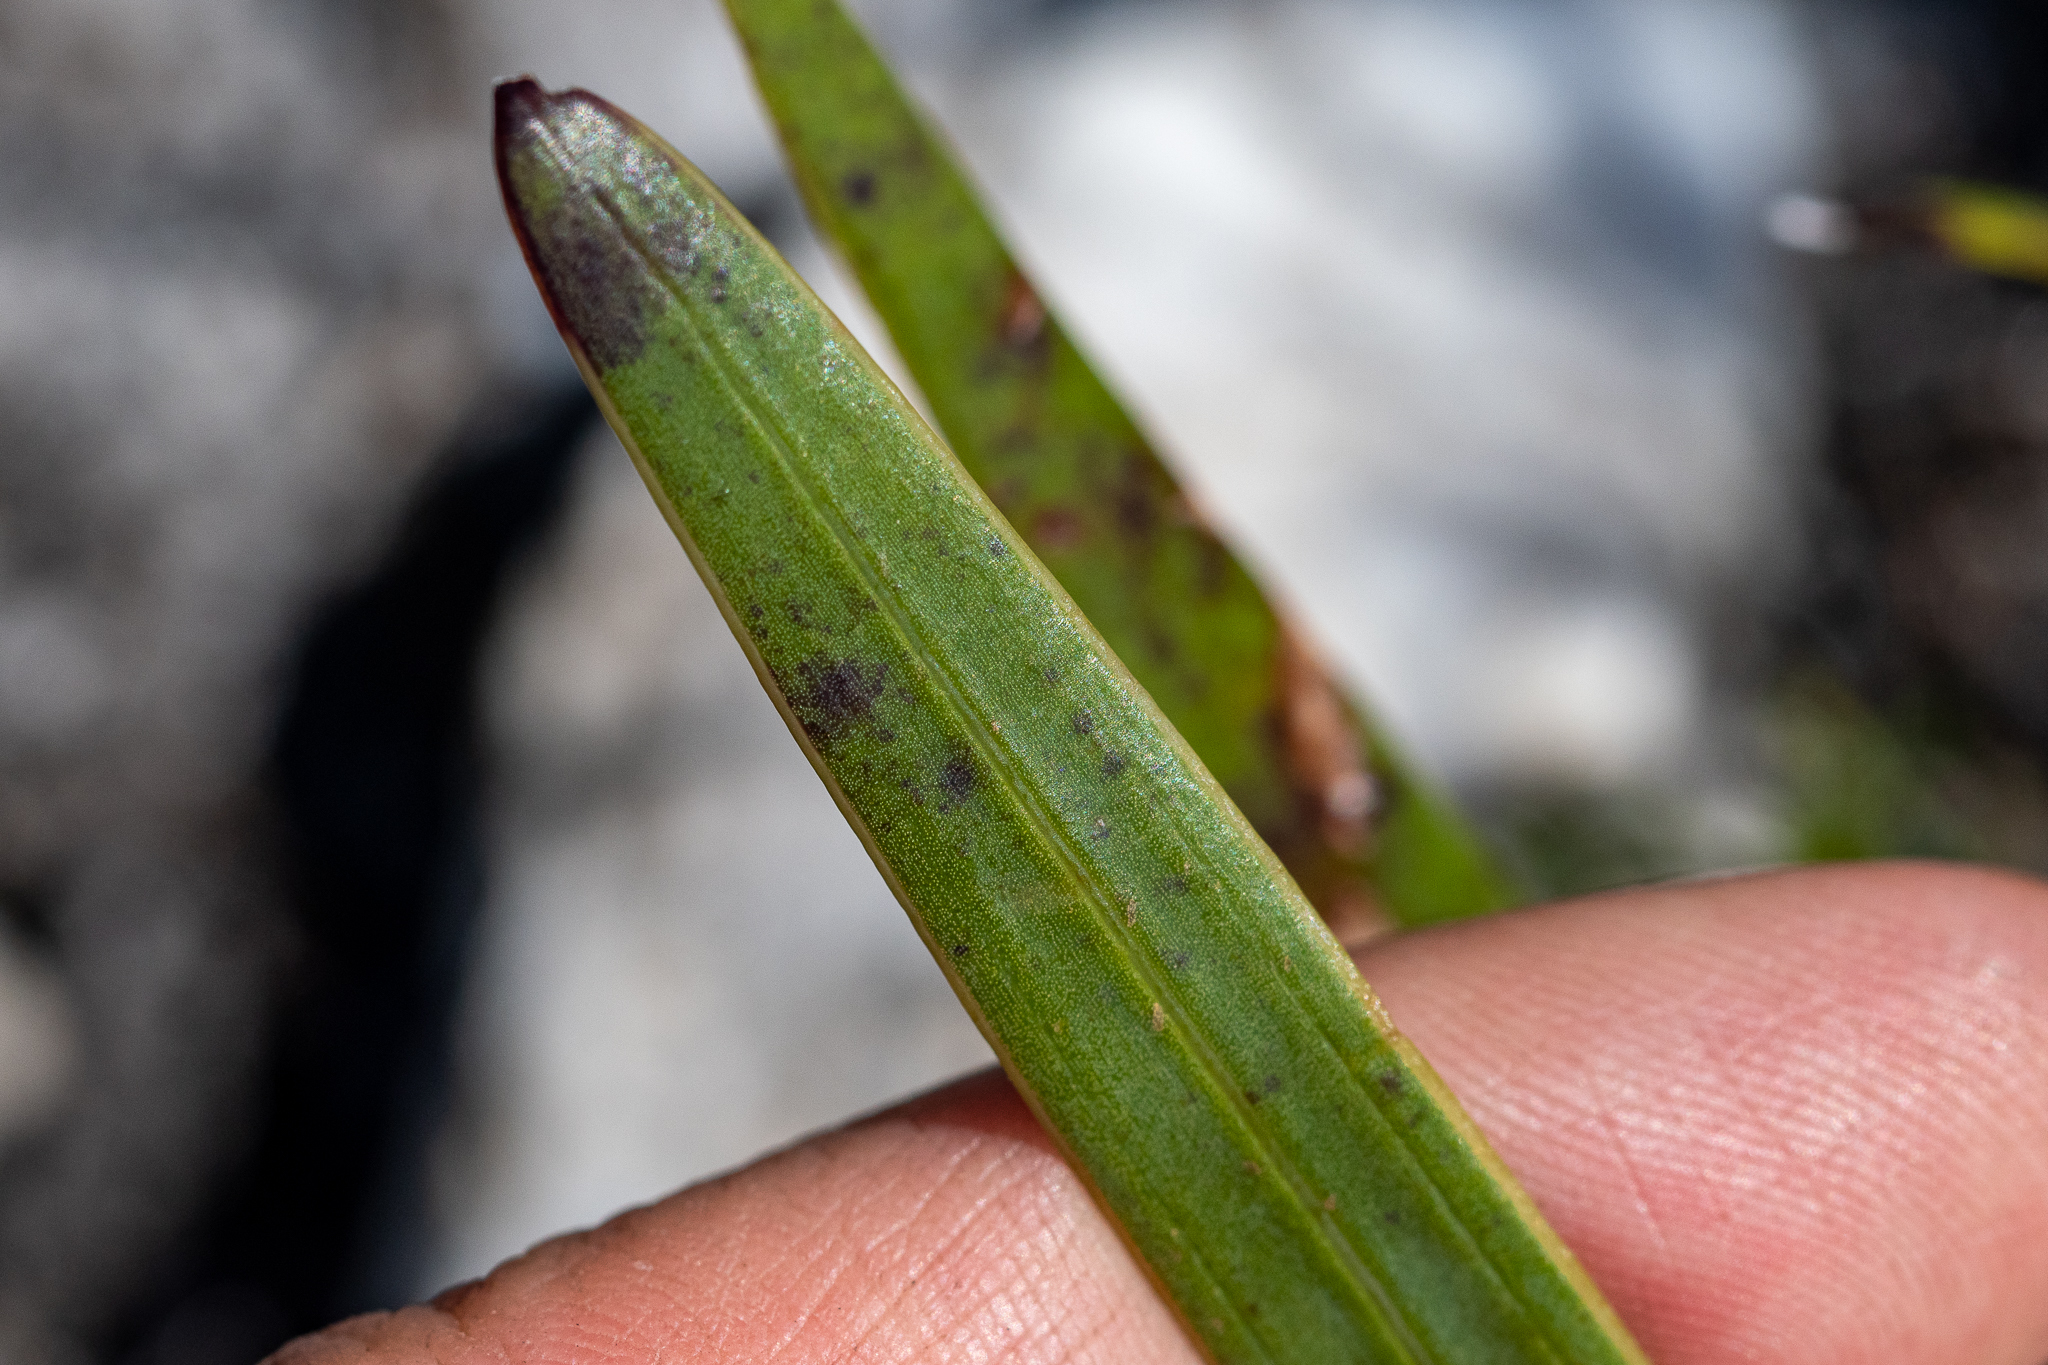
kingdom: Plantae
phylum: Tracheophyta
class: Magnoliopsida
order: Asterales
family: Asteraceae
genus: Corymbium
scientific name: Corymbium glabrum
